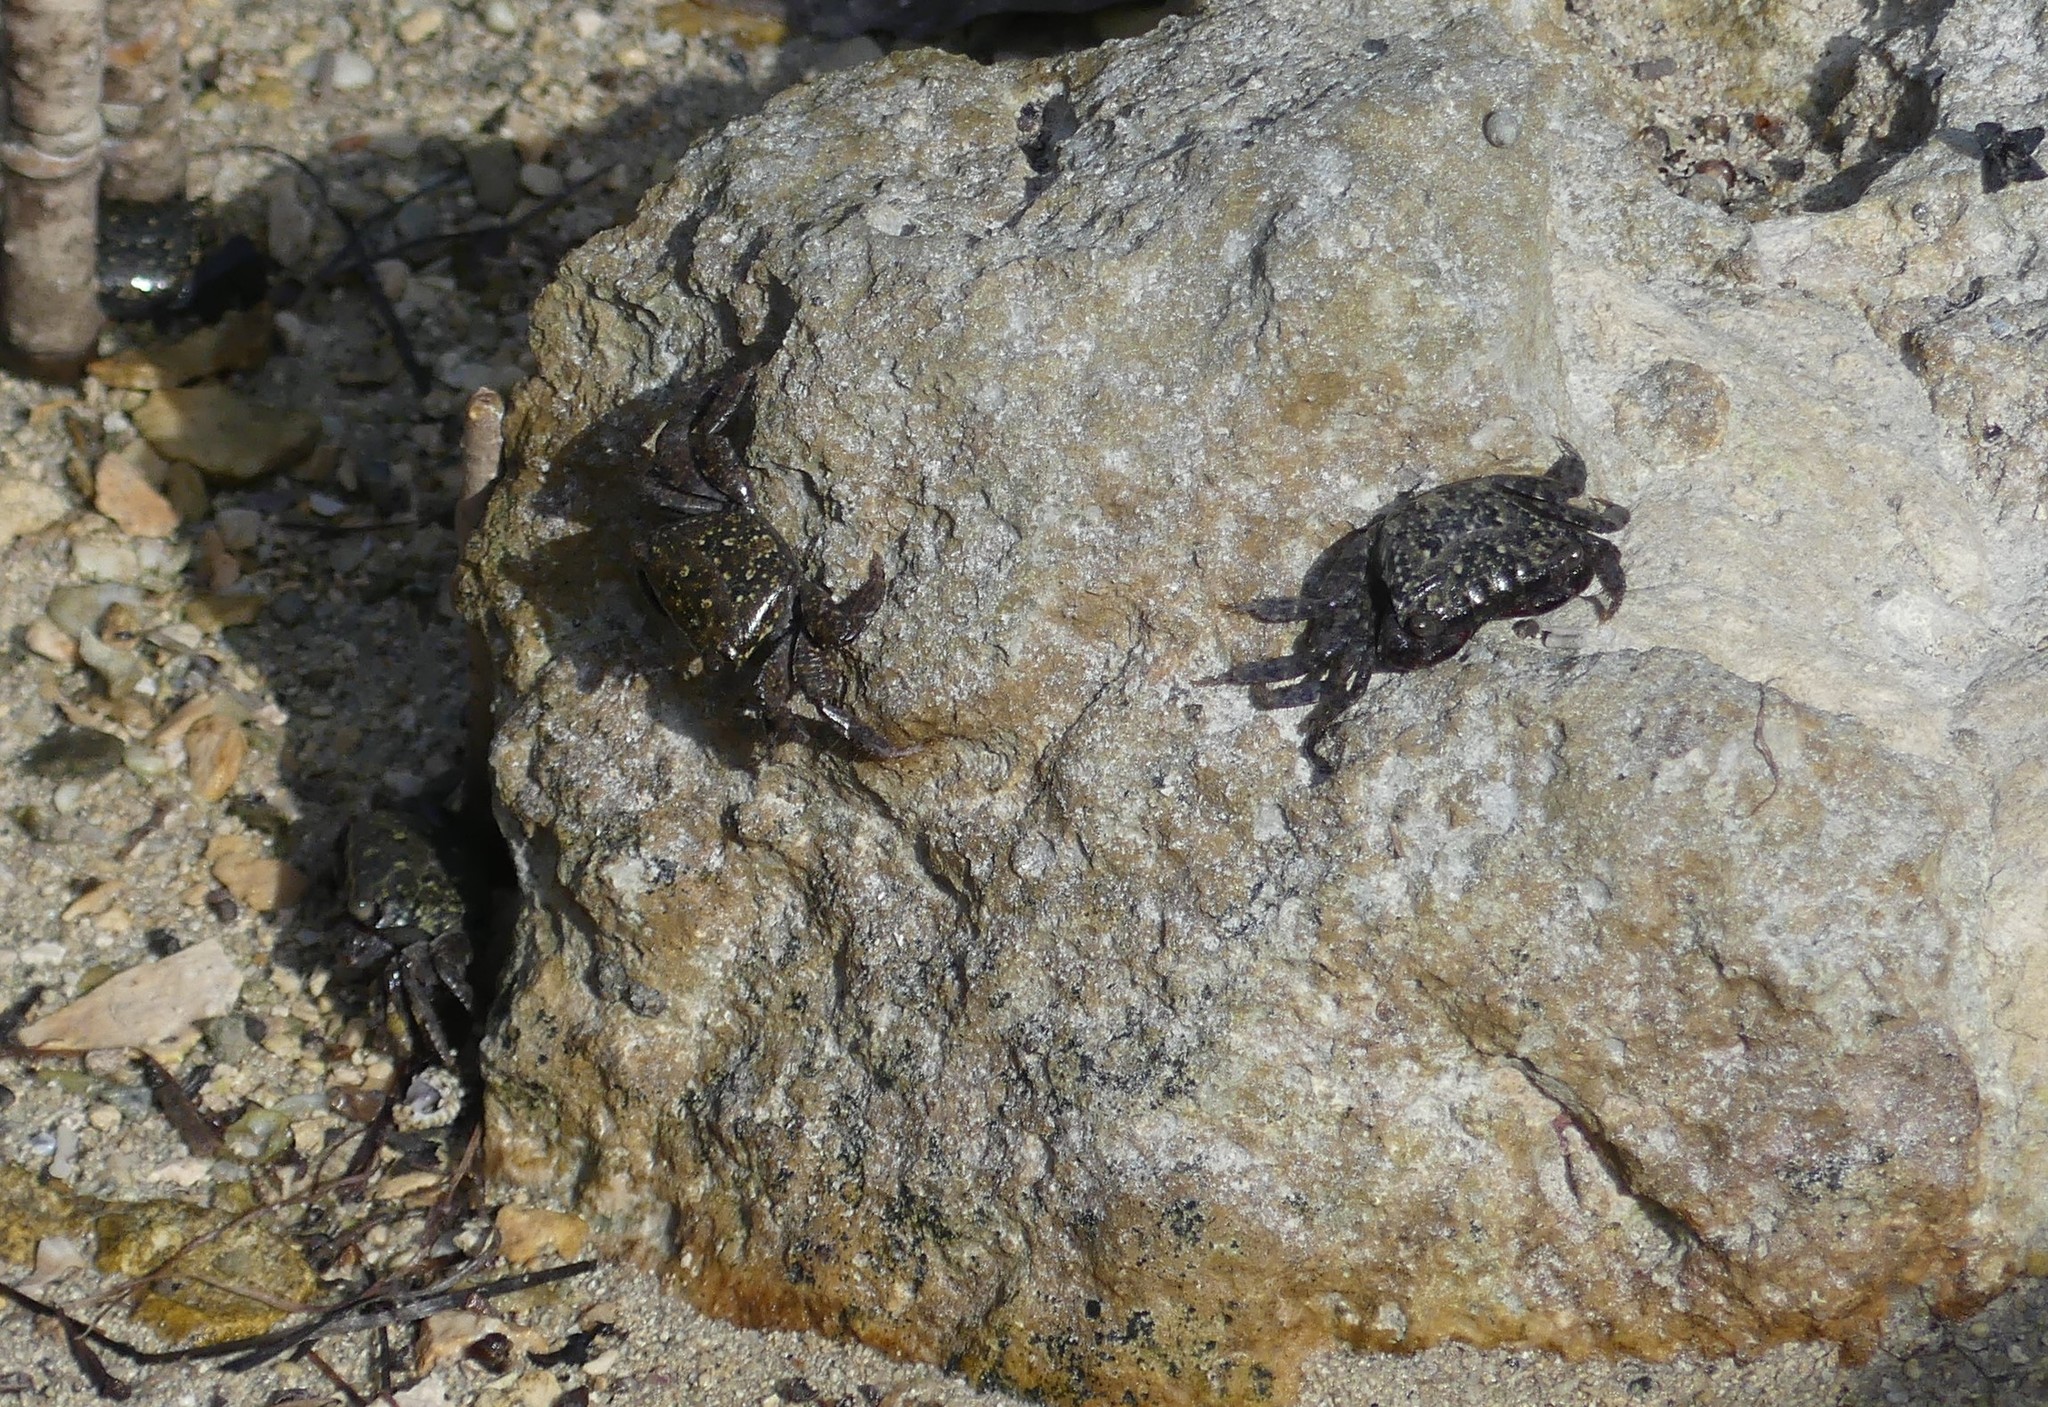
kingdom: Animalia
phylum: Arthropoda
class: Malacostraca
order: Decapoda
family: Grapsidae
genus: Metopograpsus
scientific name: Metopograpsus messor
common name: Alamihi
